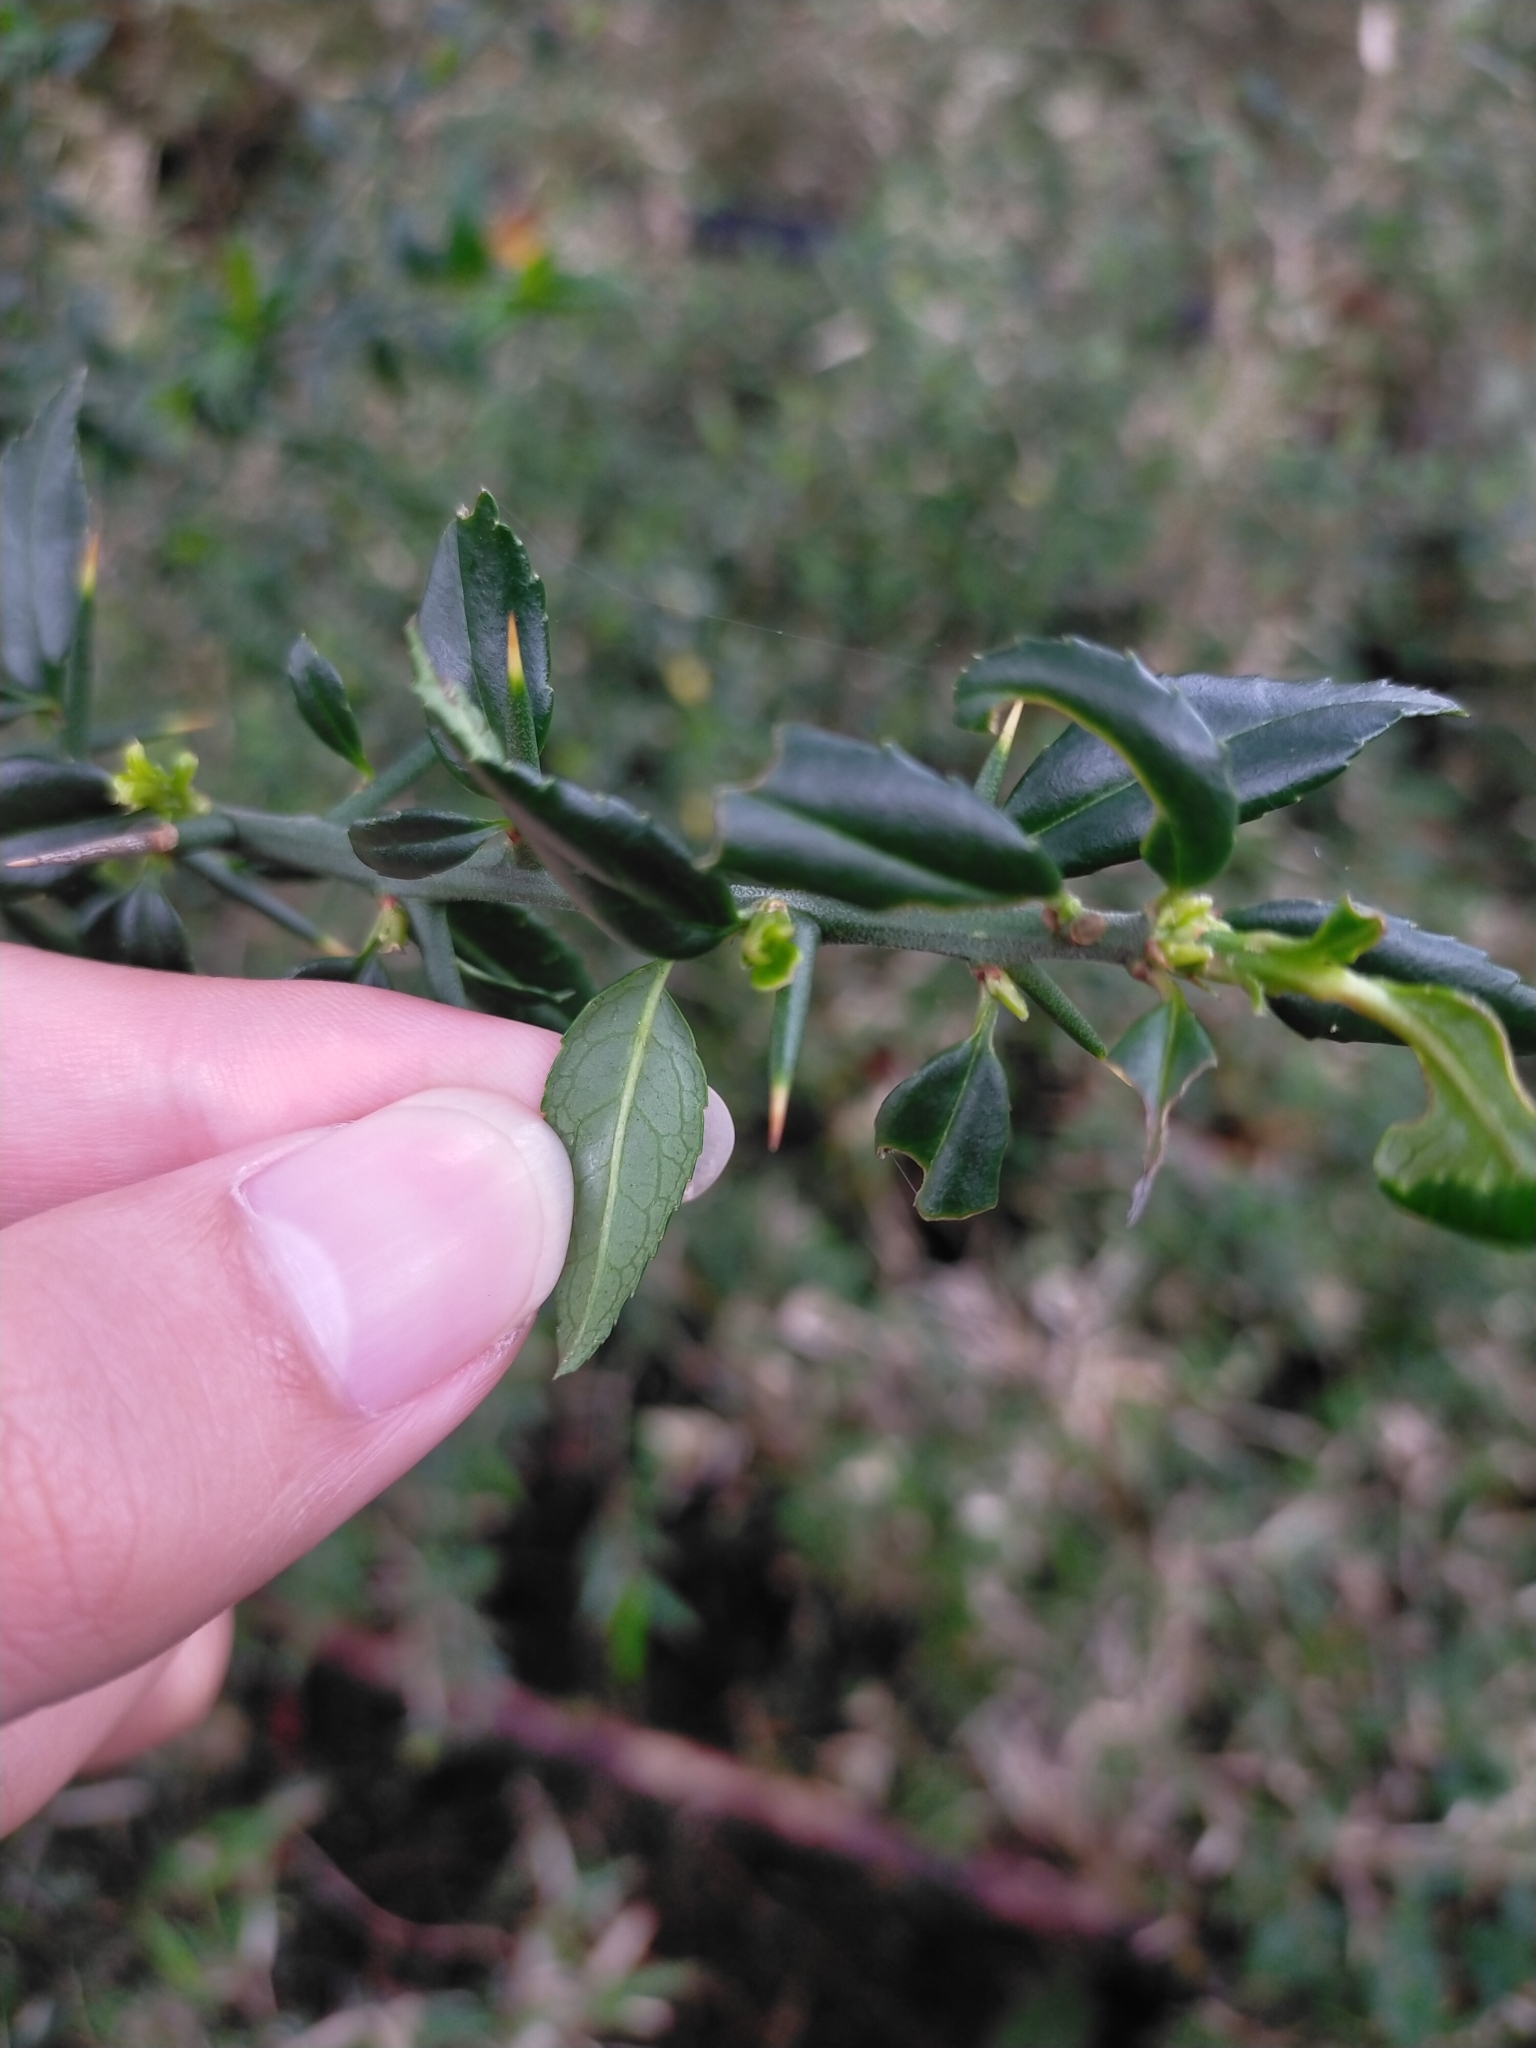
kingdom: Plantae
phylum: Tracheophyta
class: Magnoliopsida
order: Rosales
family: Rosaceae
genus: Prinsepia
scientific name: Prinsepia scandens
